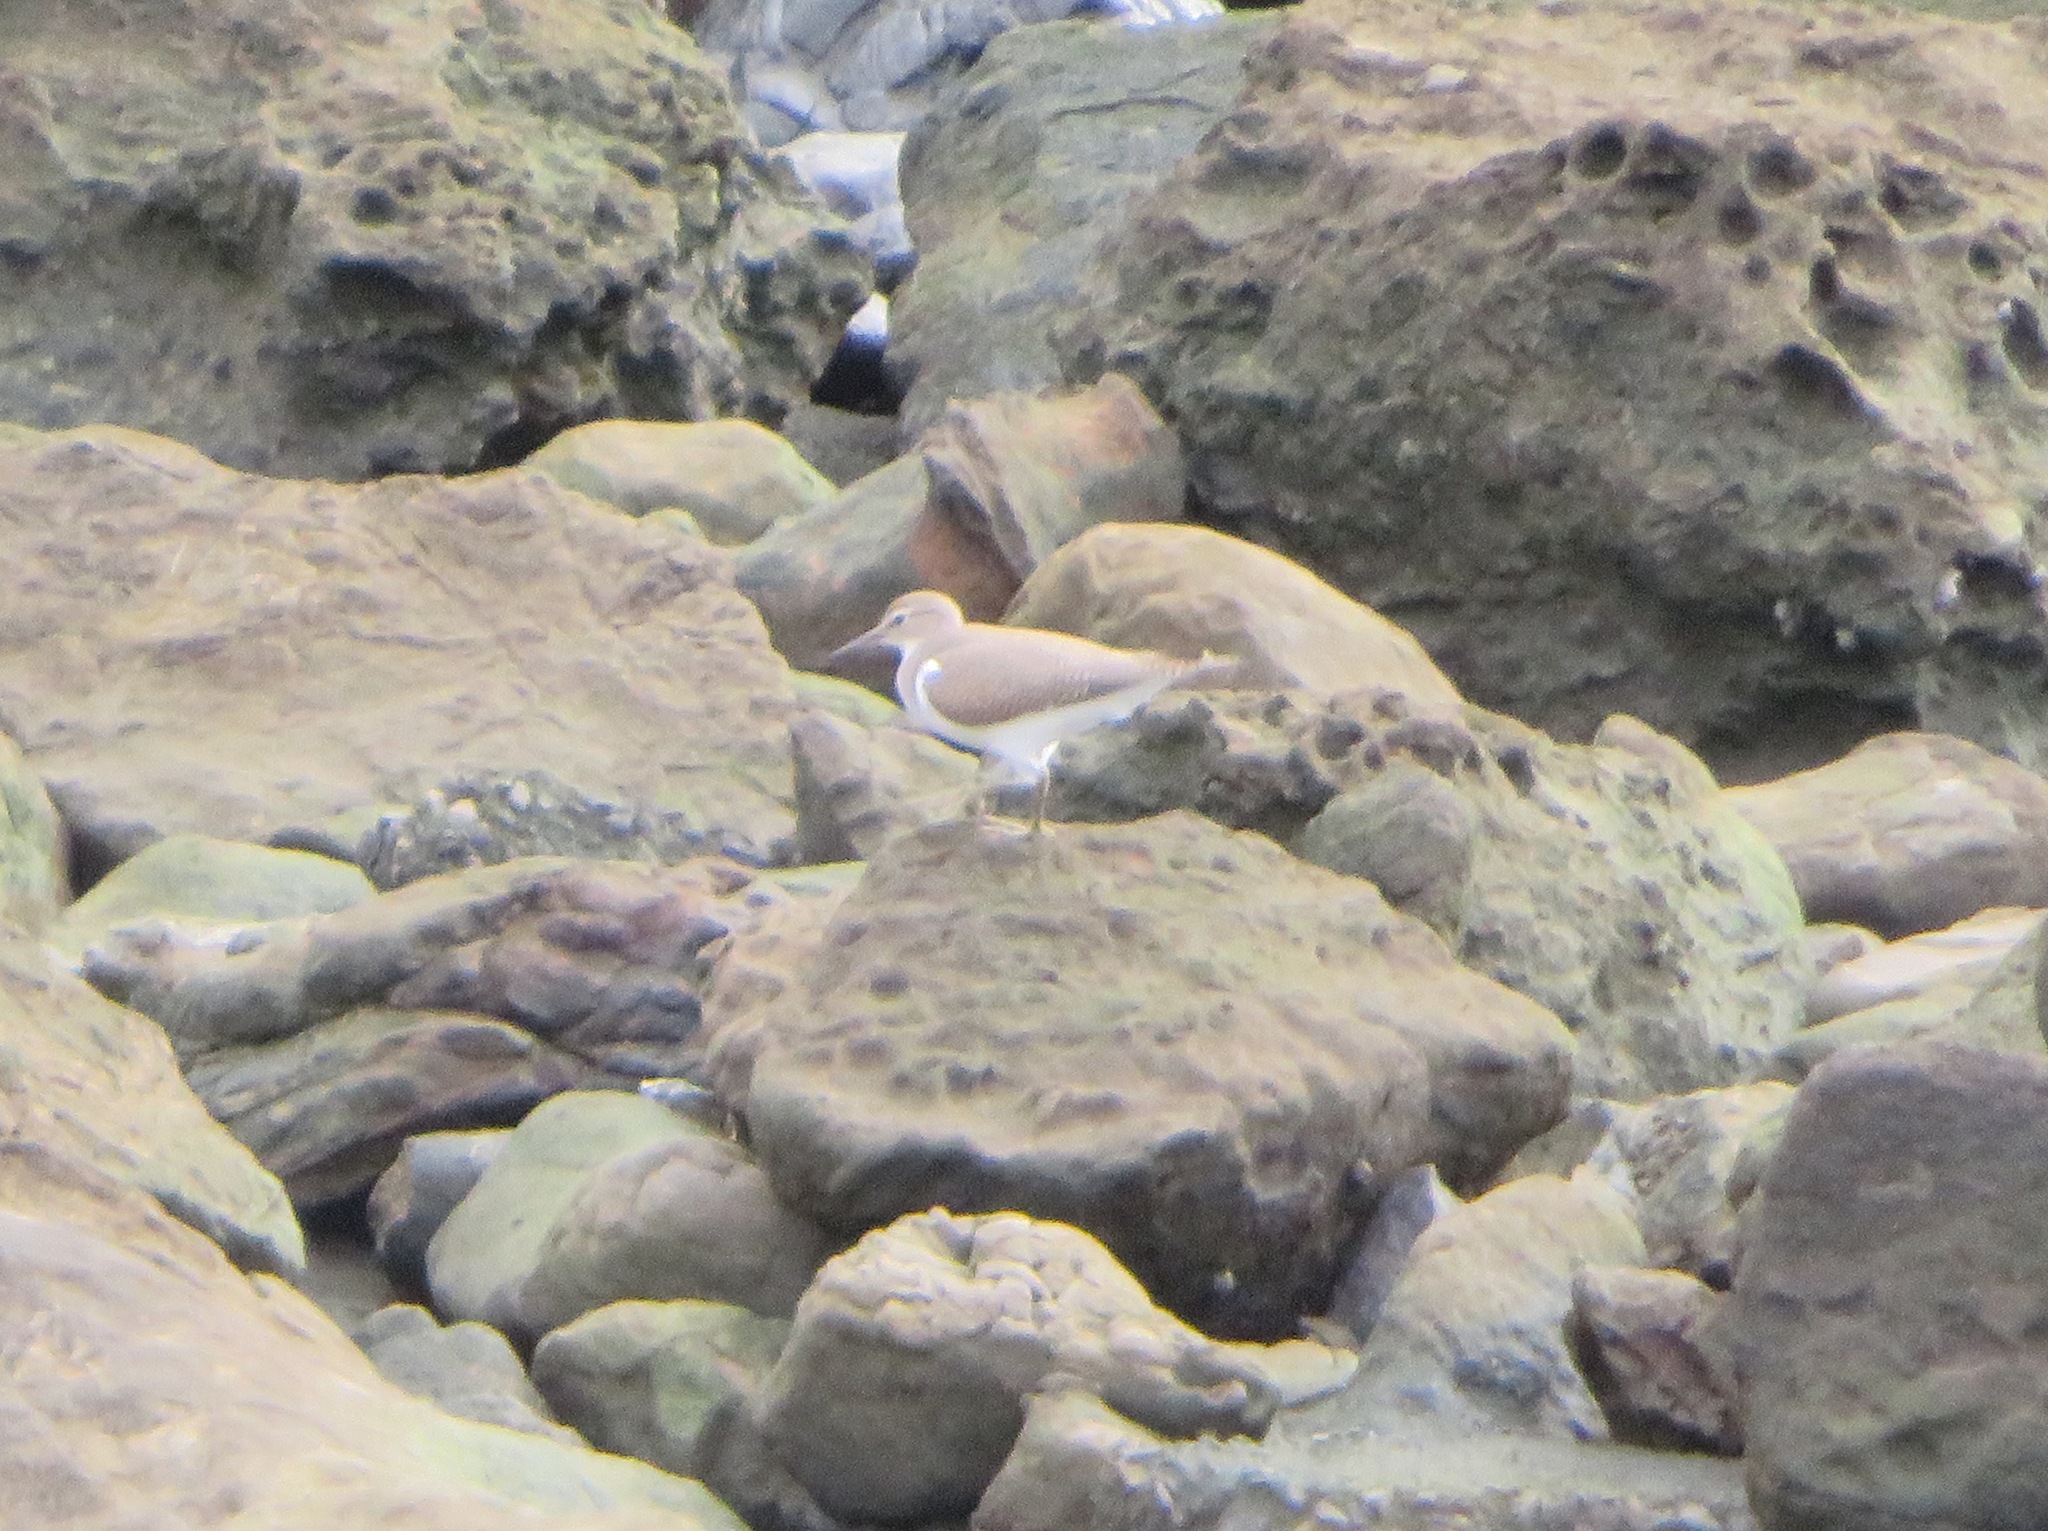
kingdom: Animalia
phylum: Chordata
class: Aves
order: Charadriiformes
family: Scolopacidae
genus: Actitis
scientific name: Actitis hypoleucos
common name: Common sandpiper
